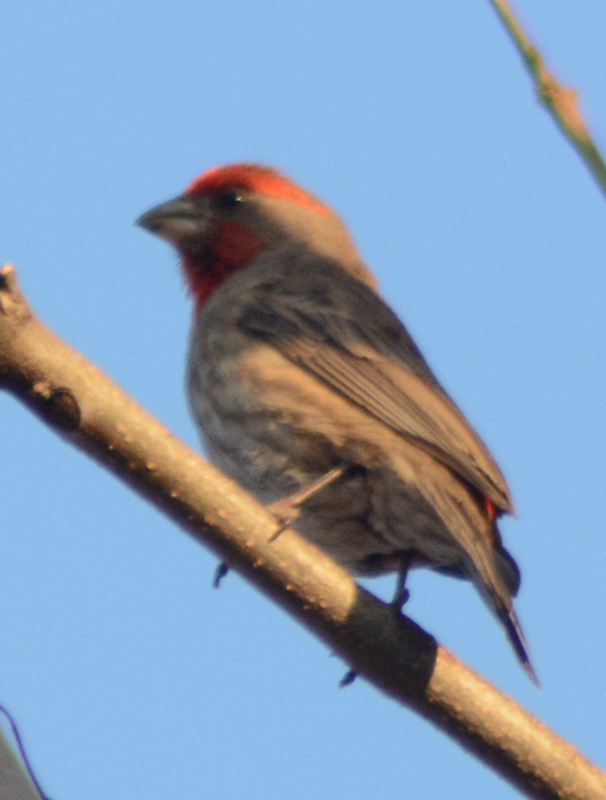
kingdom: Animalia
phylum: Chordata
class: Aves
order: Passeriformes
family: Fringillidae
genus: Haemorhous
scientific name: Haemorhous mexicanus
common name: House finch
